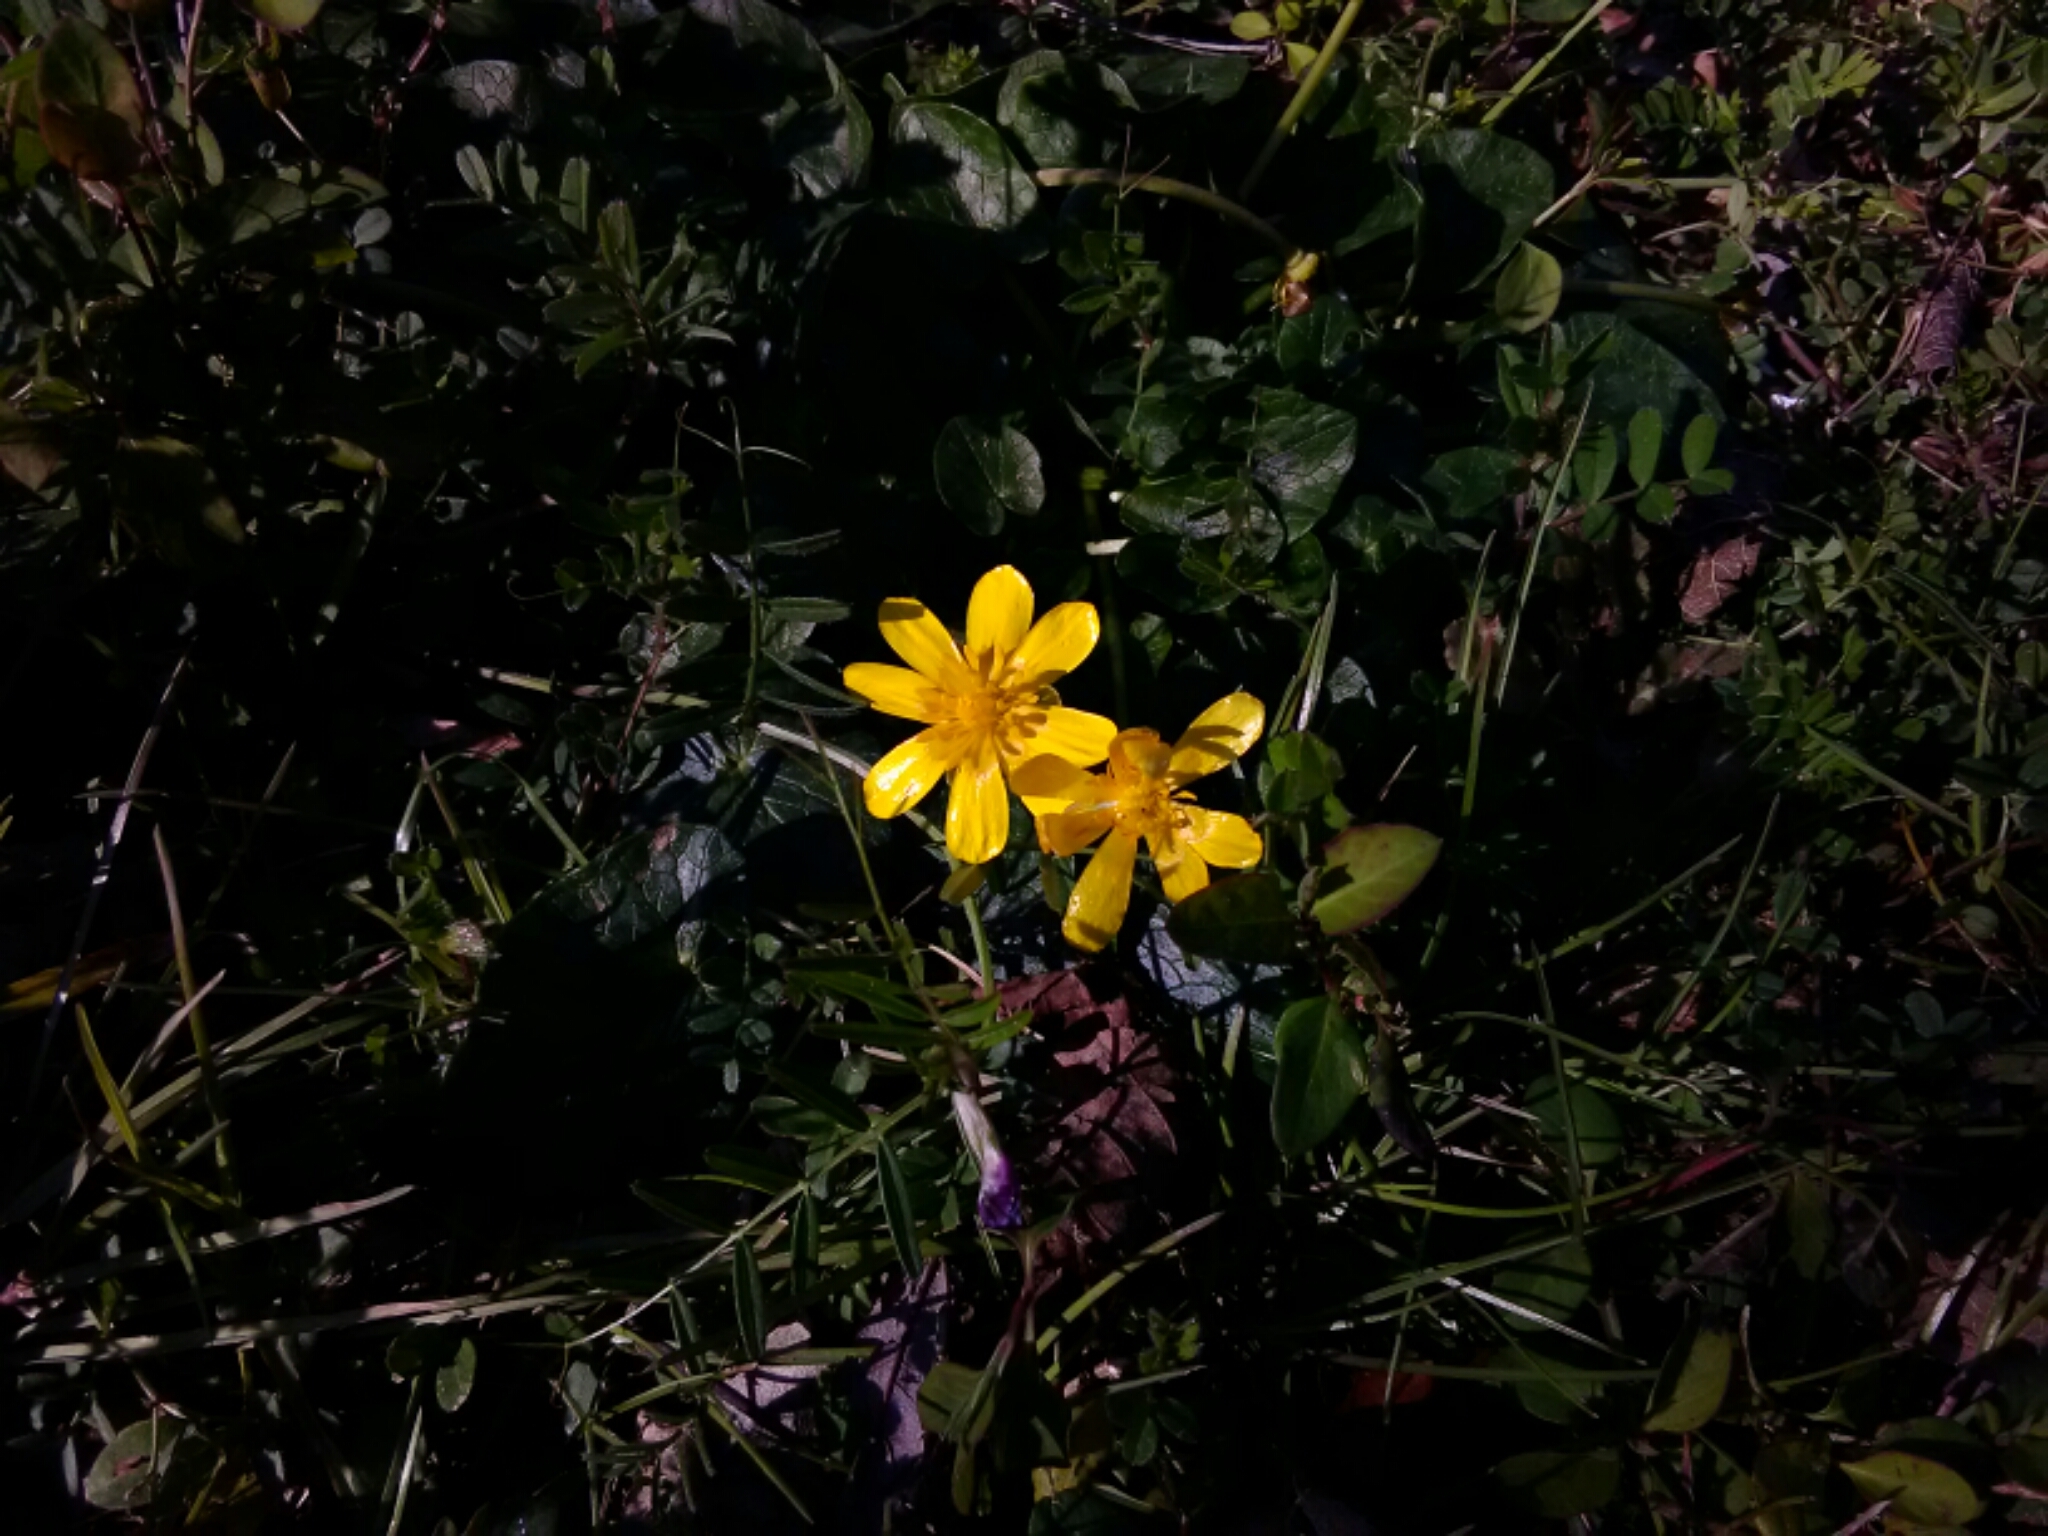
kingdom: Plantae
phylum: Tracheophyta
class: Magnoliopsida
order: Ranunculales
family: Ranunculaceae
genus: Ficaria
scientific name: Ficaria verna
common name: Lesser celandine
